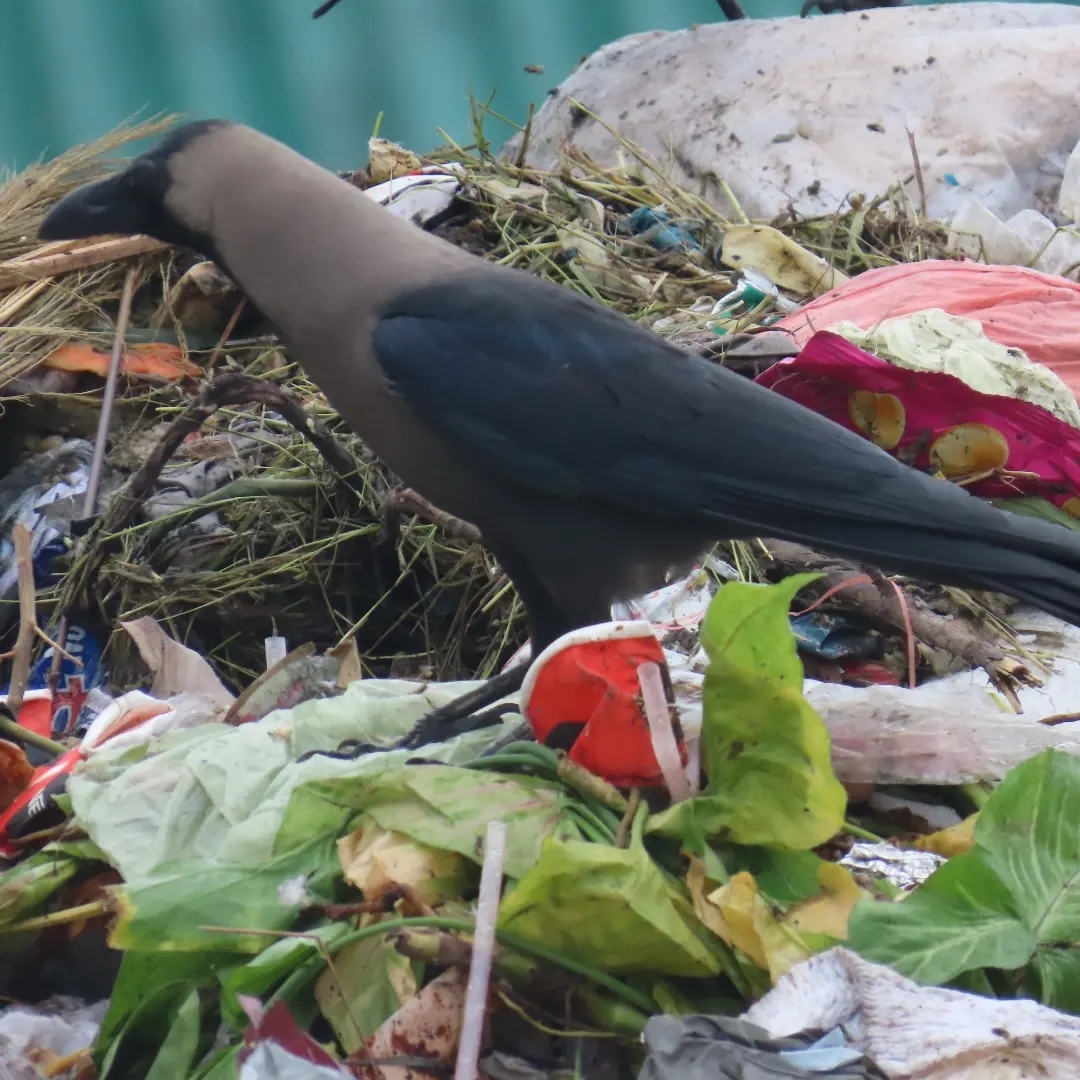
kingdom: Animalia
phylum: Chordata
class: Aves
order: Passeriformes
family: Corvidae
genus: Corvus
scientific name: Corvus splendens
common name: House crow
